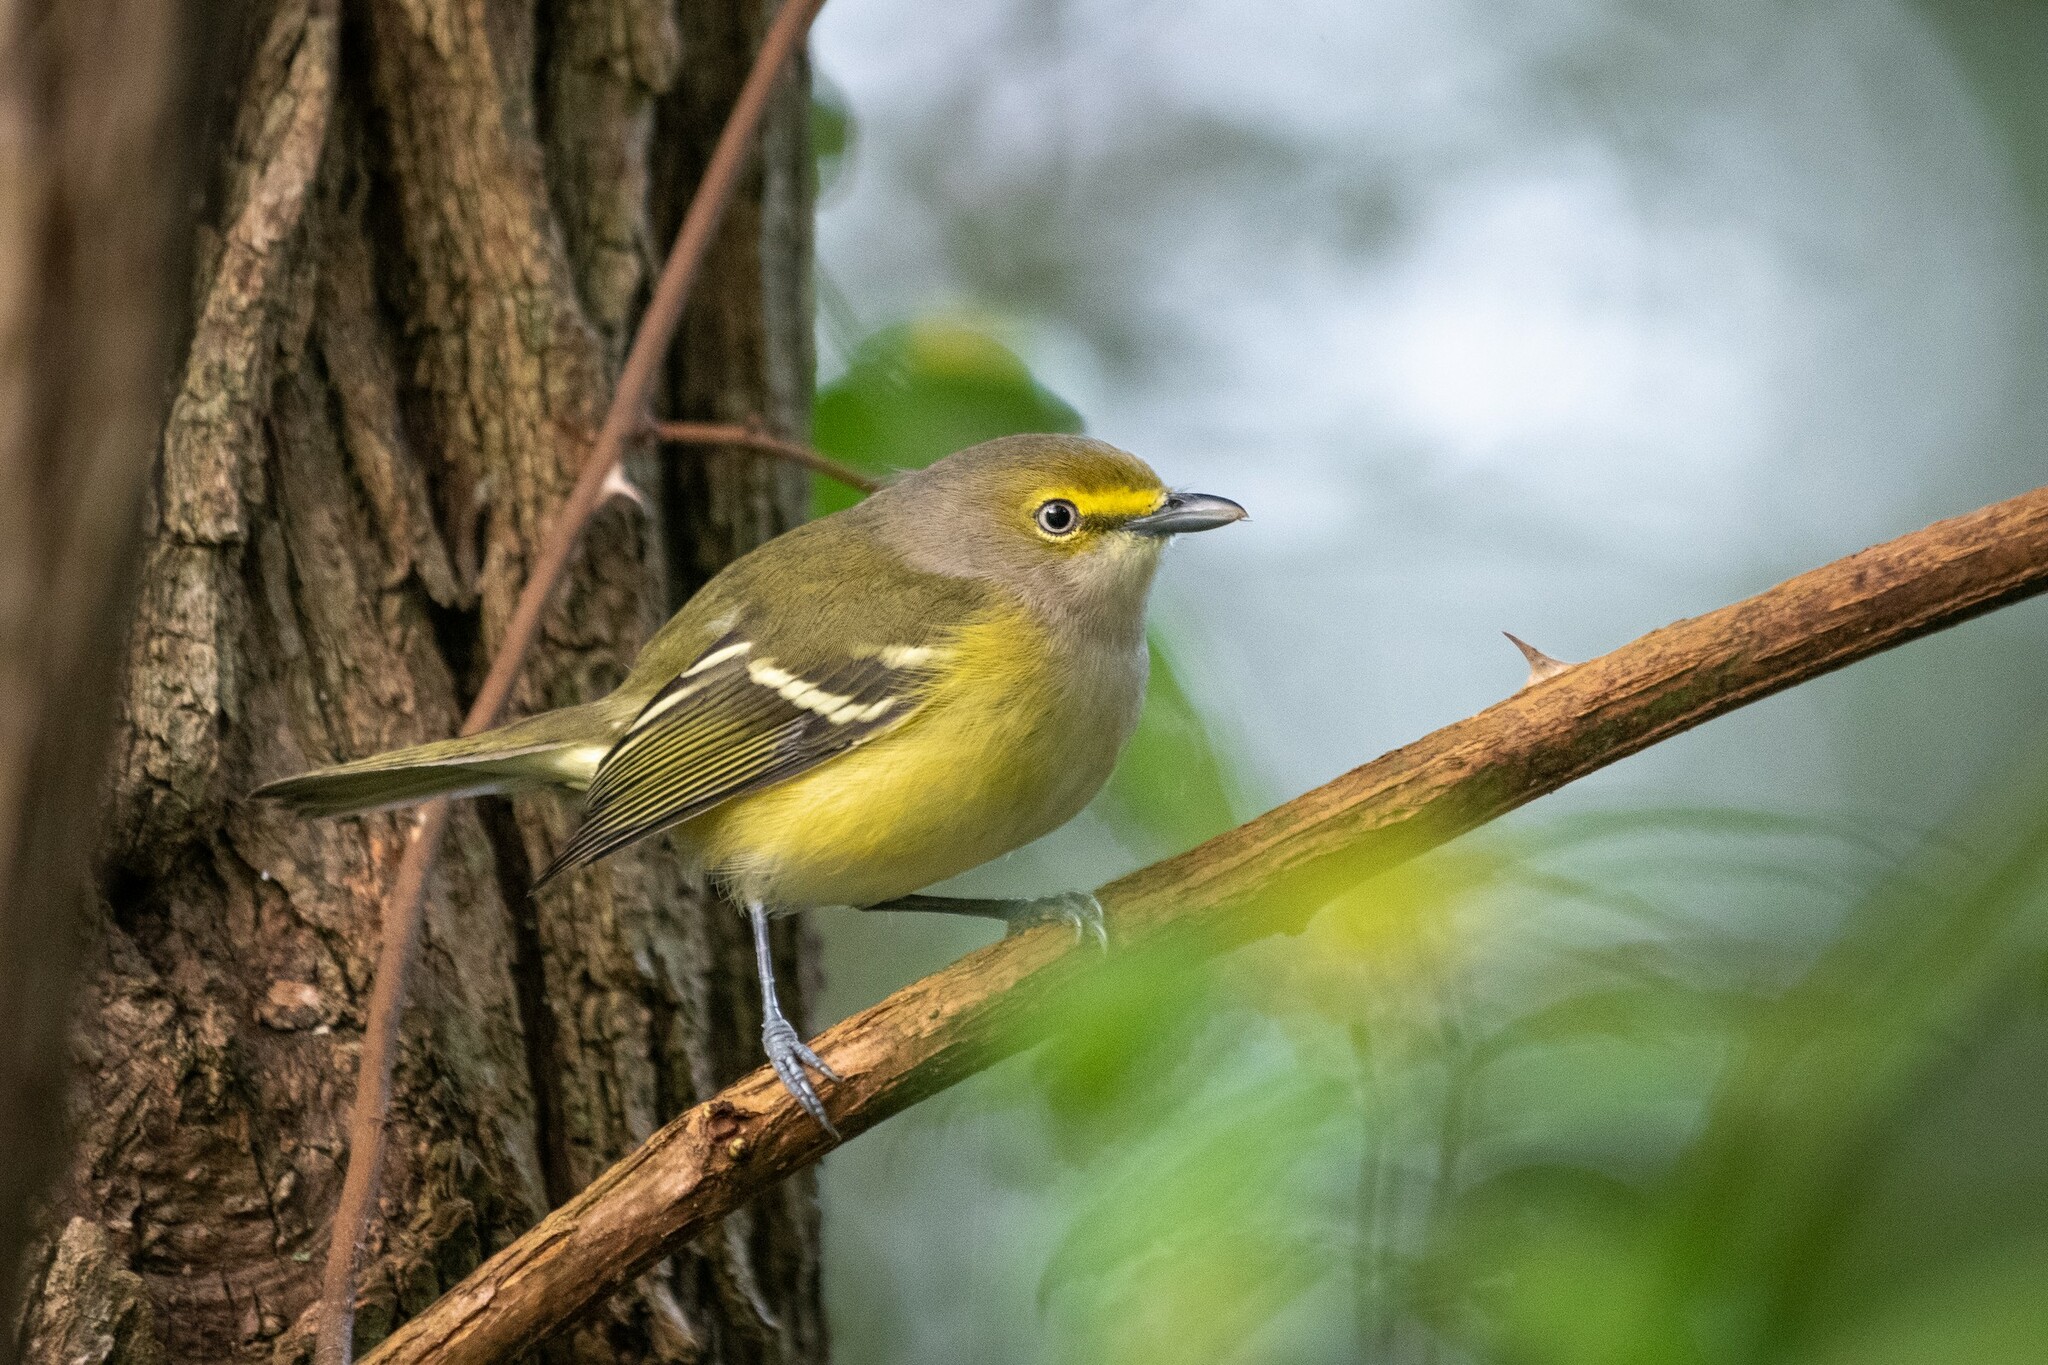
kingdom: Animalia
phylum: Chordata
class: Aves
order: Passeriformes
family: Vireonidae
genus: Vireo
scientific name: Vireo griseus
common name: White-eyed vireo
